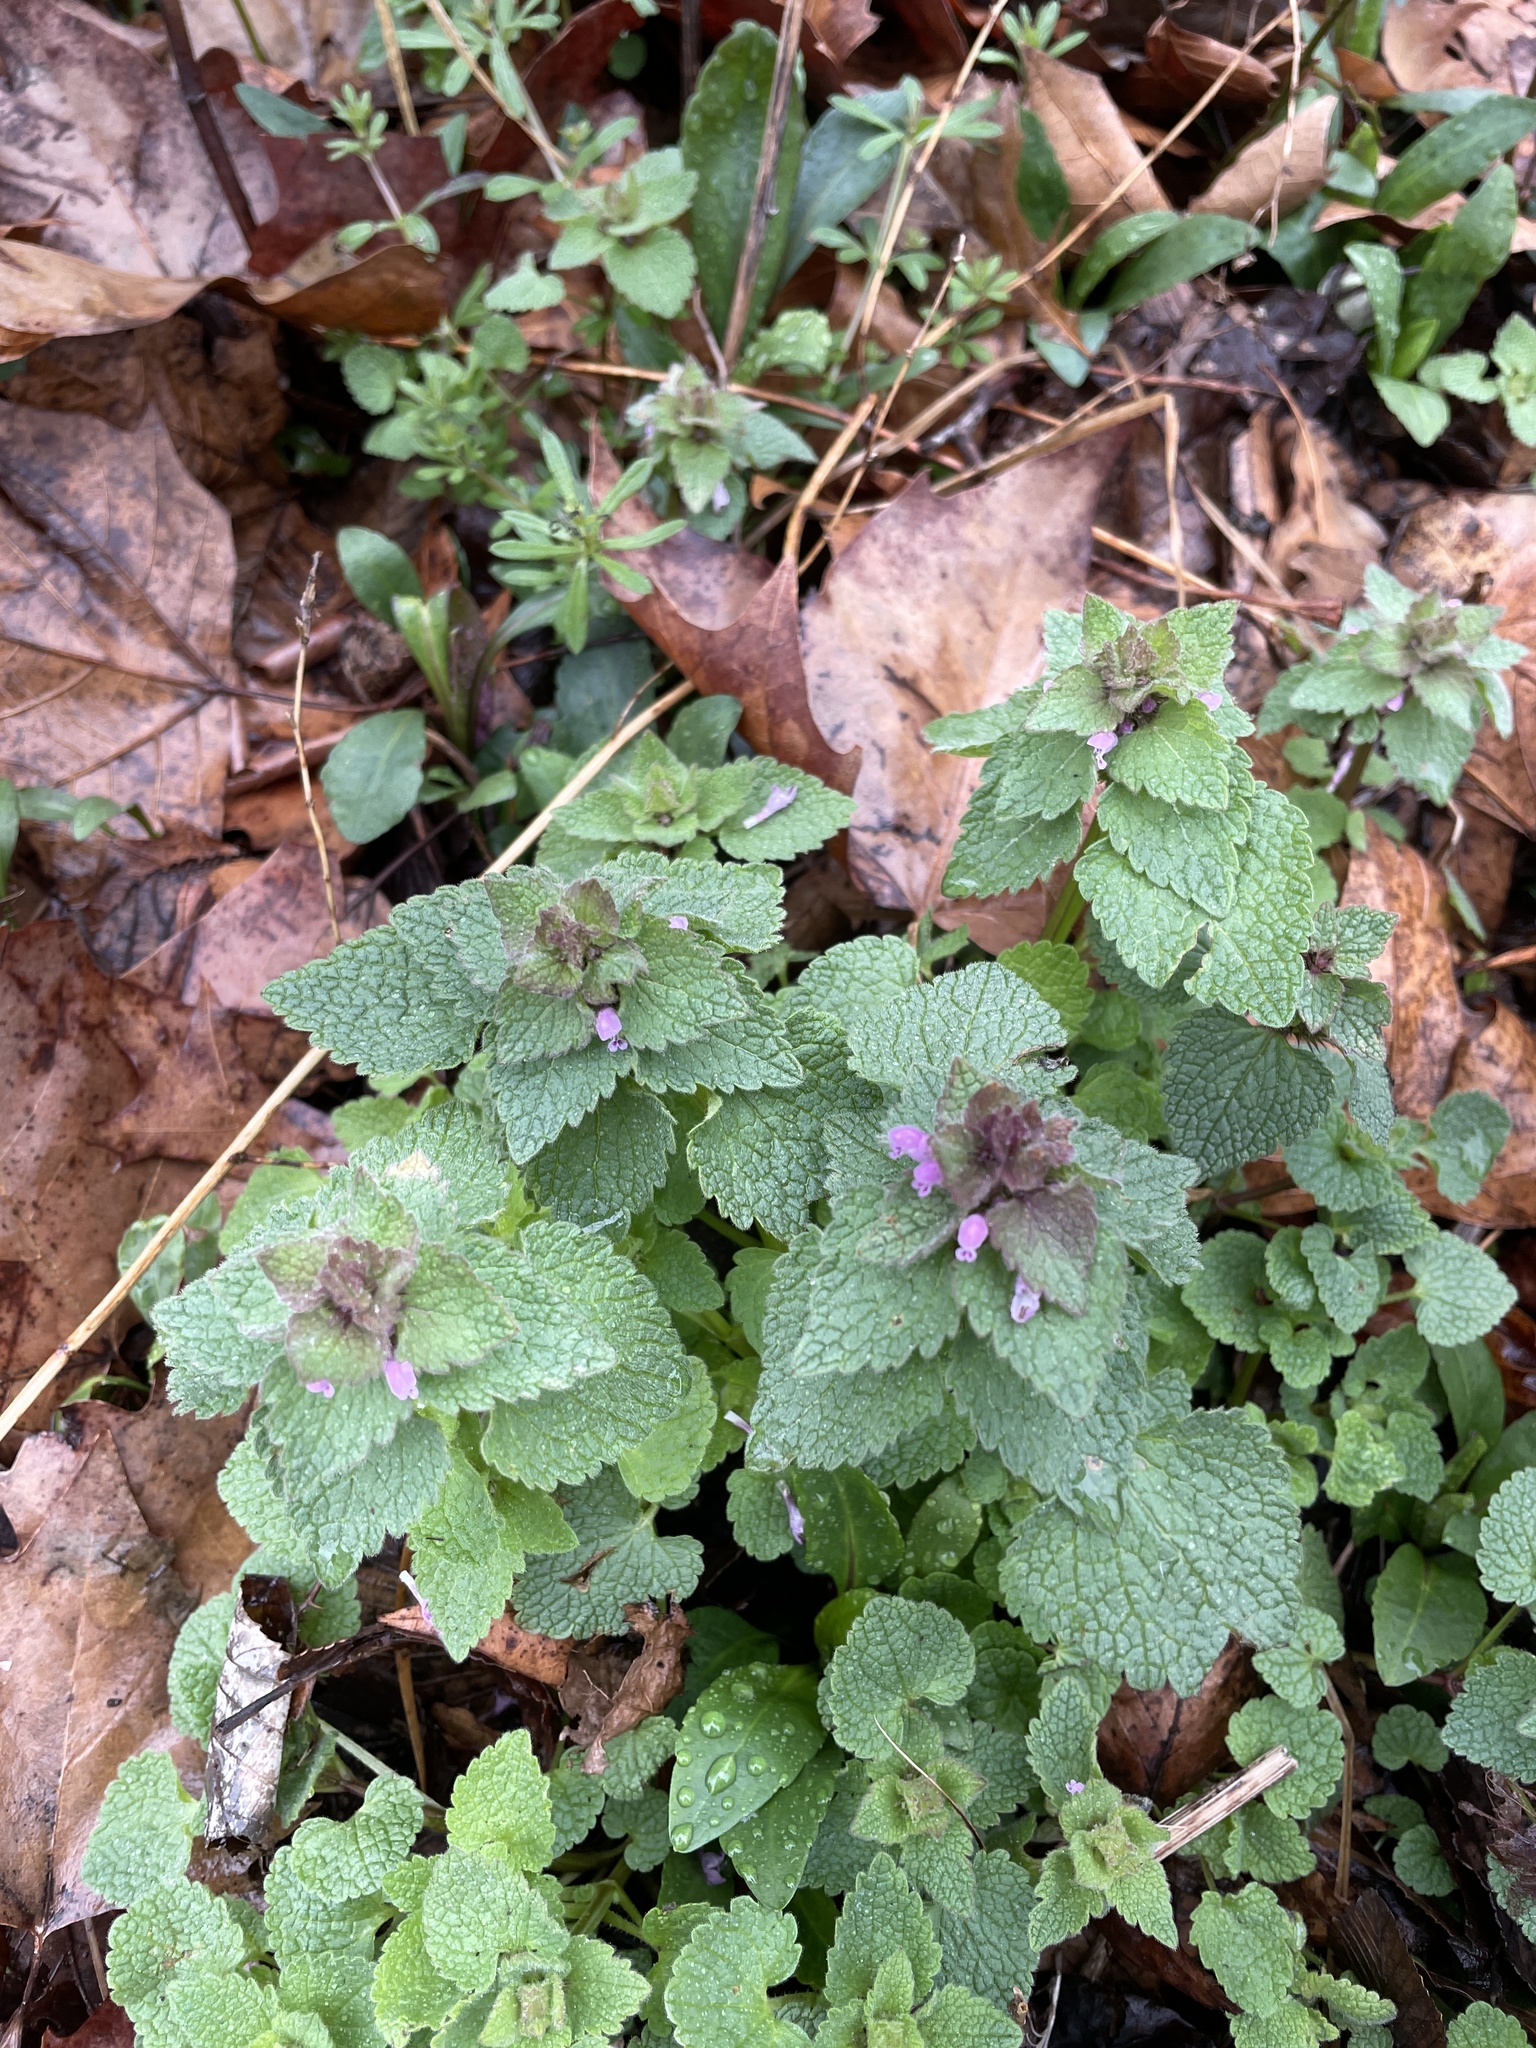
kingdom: Plantae
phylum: Tracheophyta
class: Magnoliopsida
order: Lamiales
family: Lamiaceae
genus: Lamium
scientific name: Lamium purpureum
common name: Red dead-nettle
